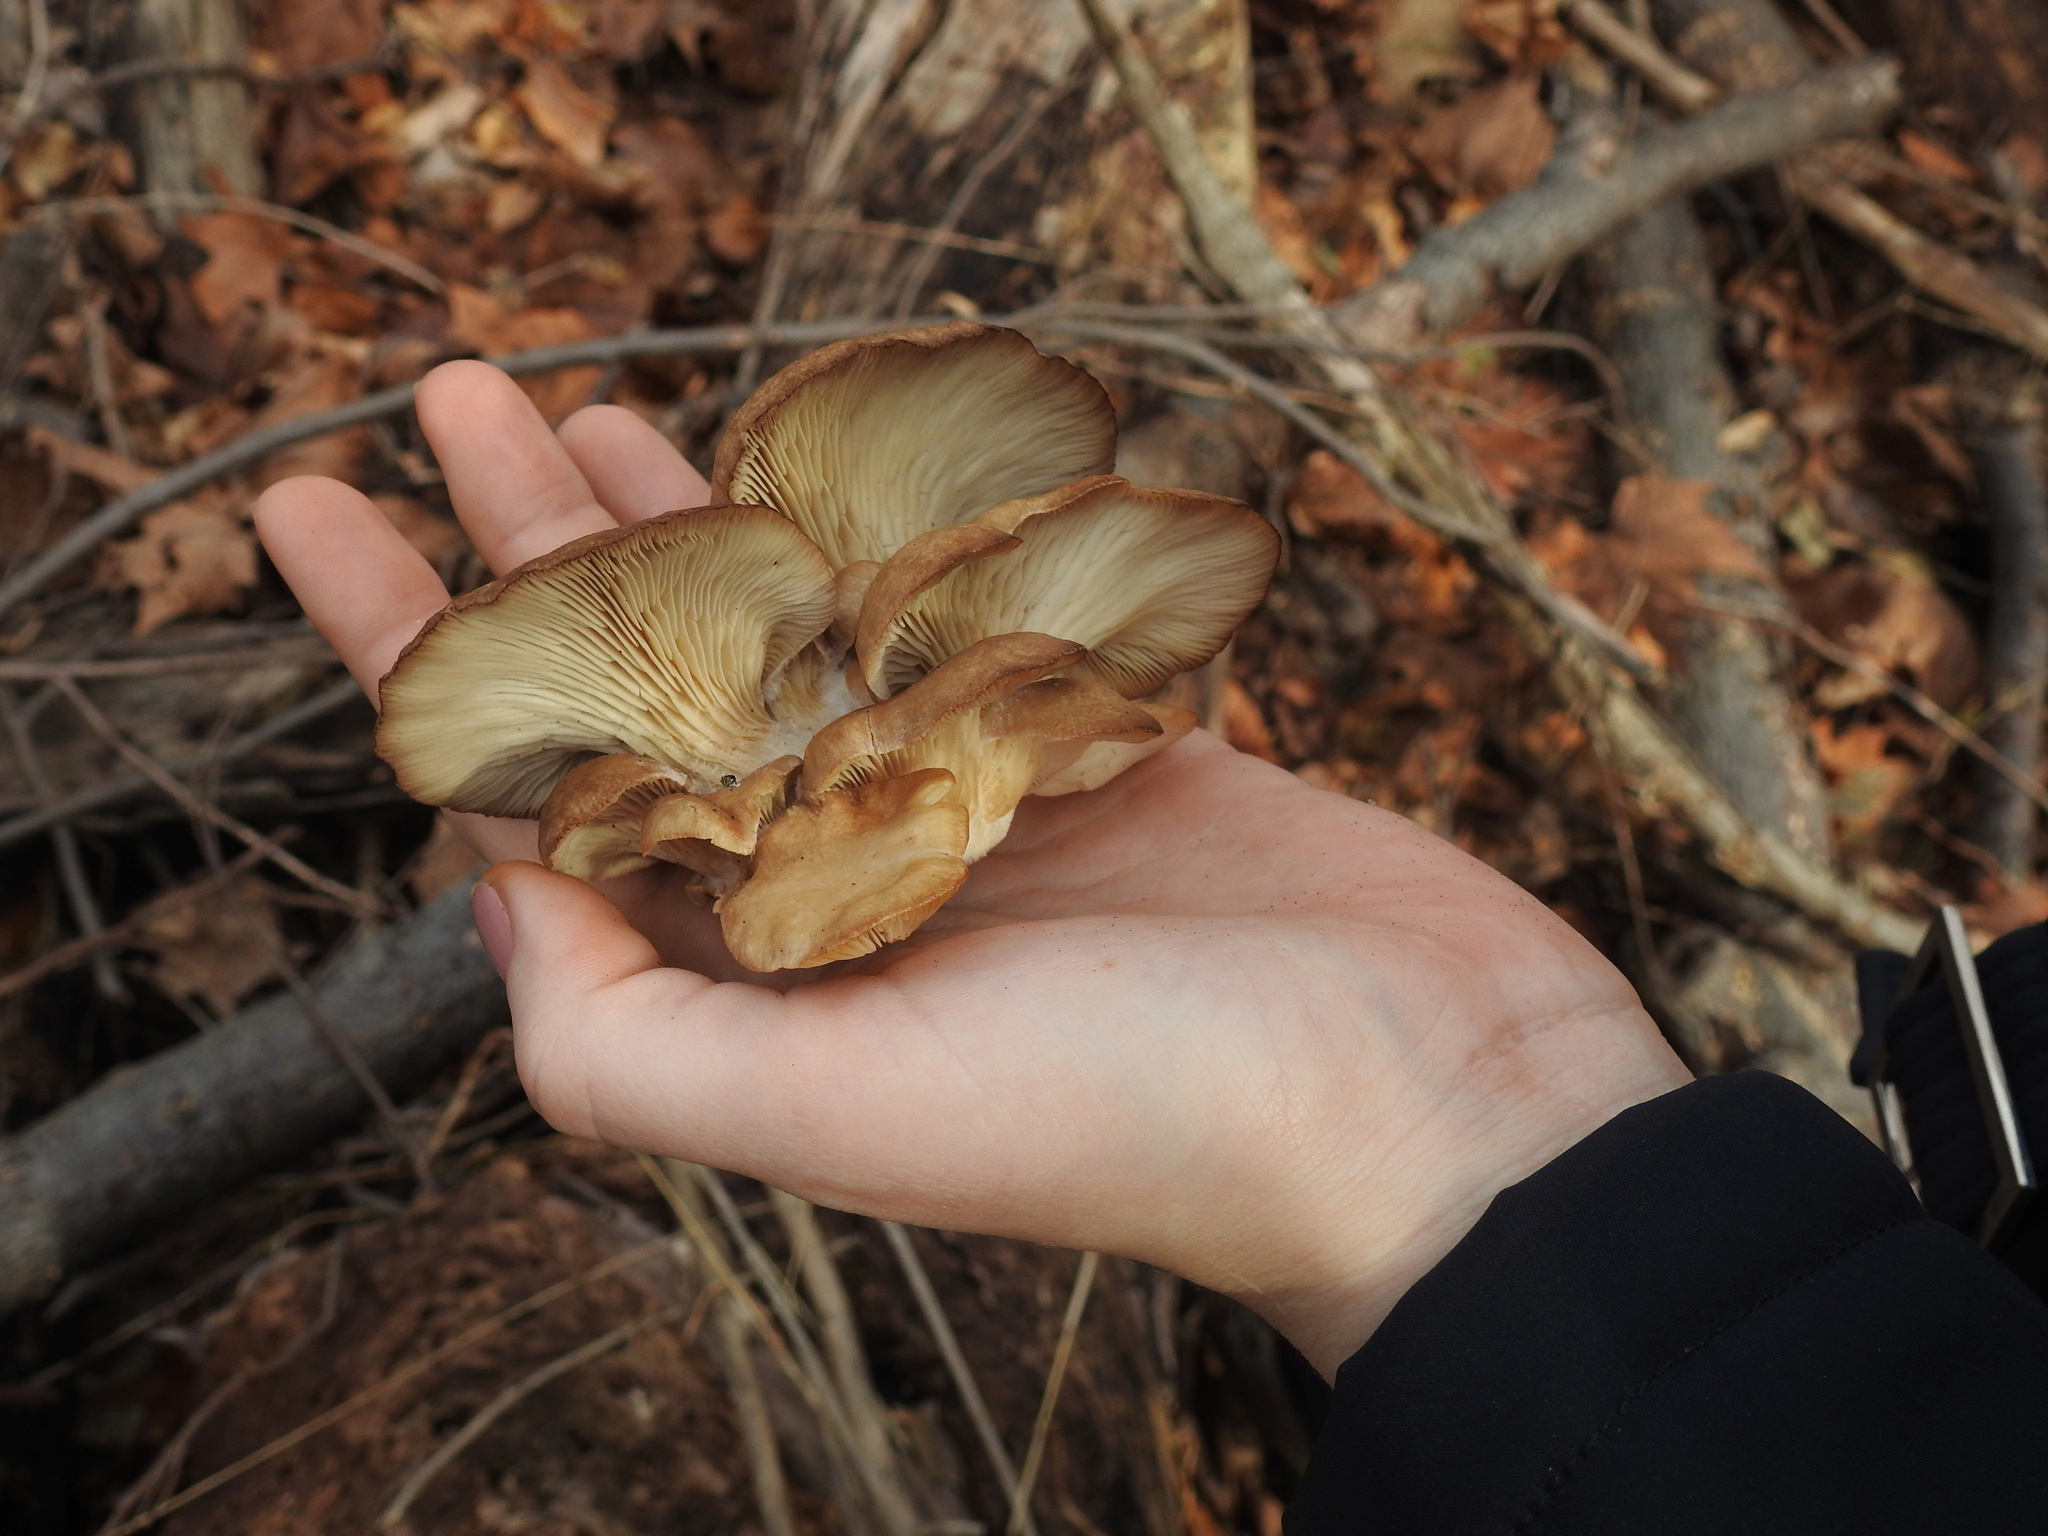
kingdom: Fungi
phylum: Basidiomycota
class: Agaricomycetes
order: Agaricales
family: Pleurotaceae
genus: Pleurotus
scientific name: Pleurotus ostreatus
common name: Oyster mushroom
